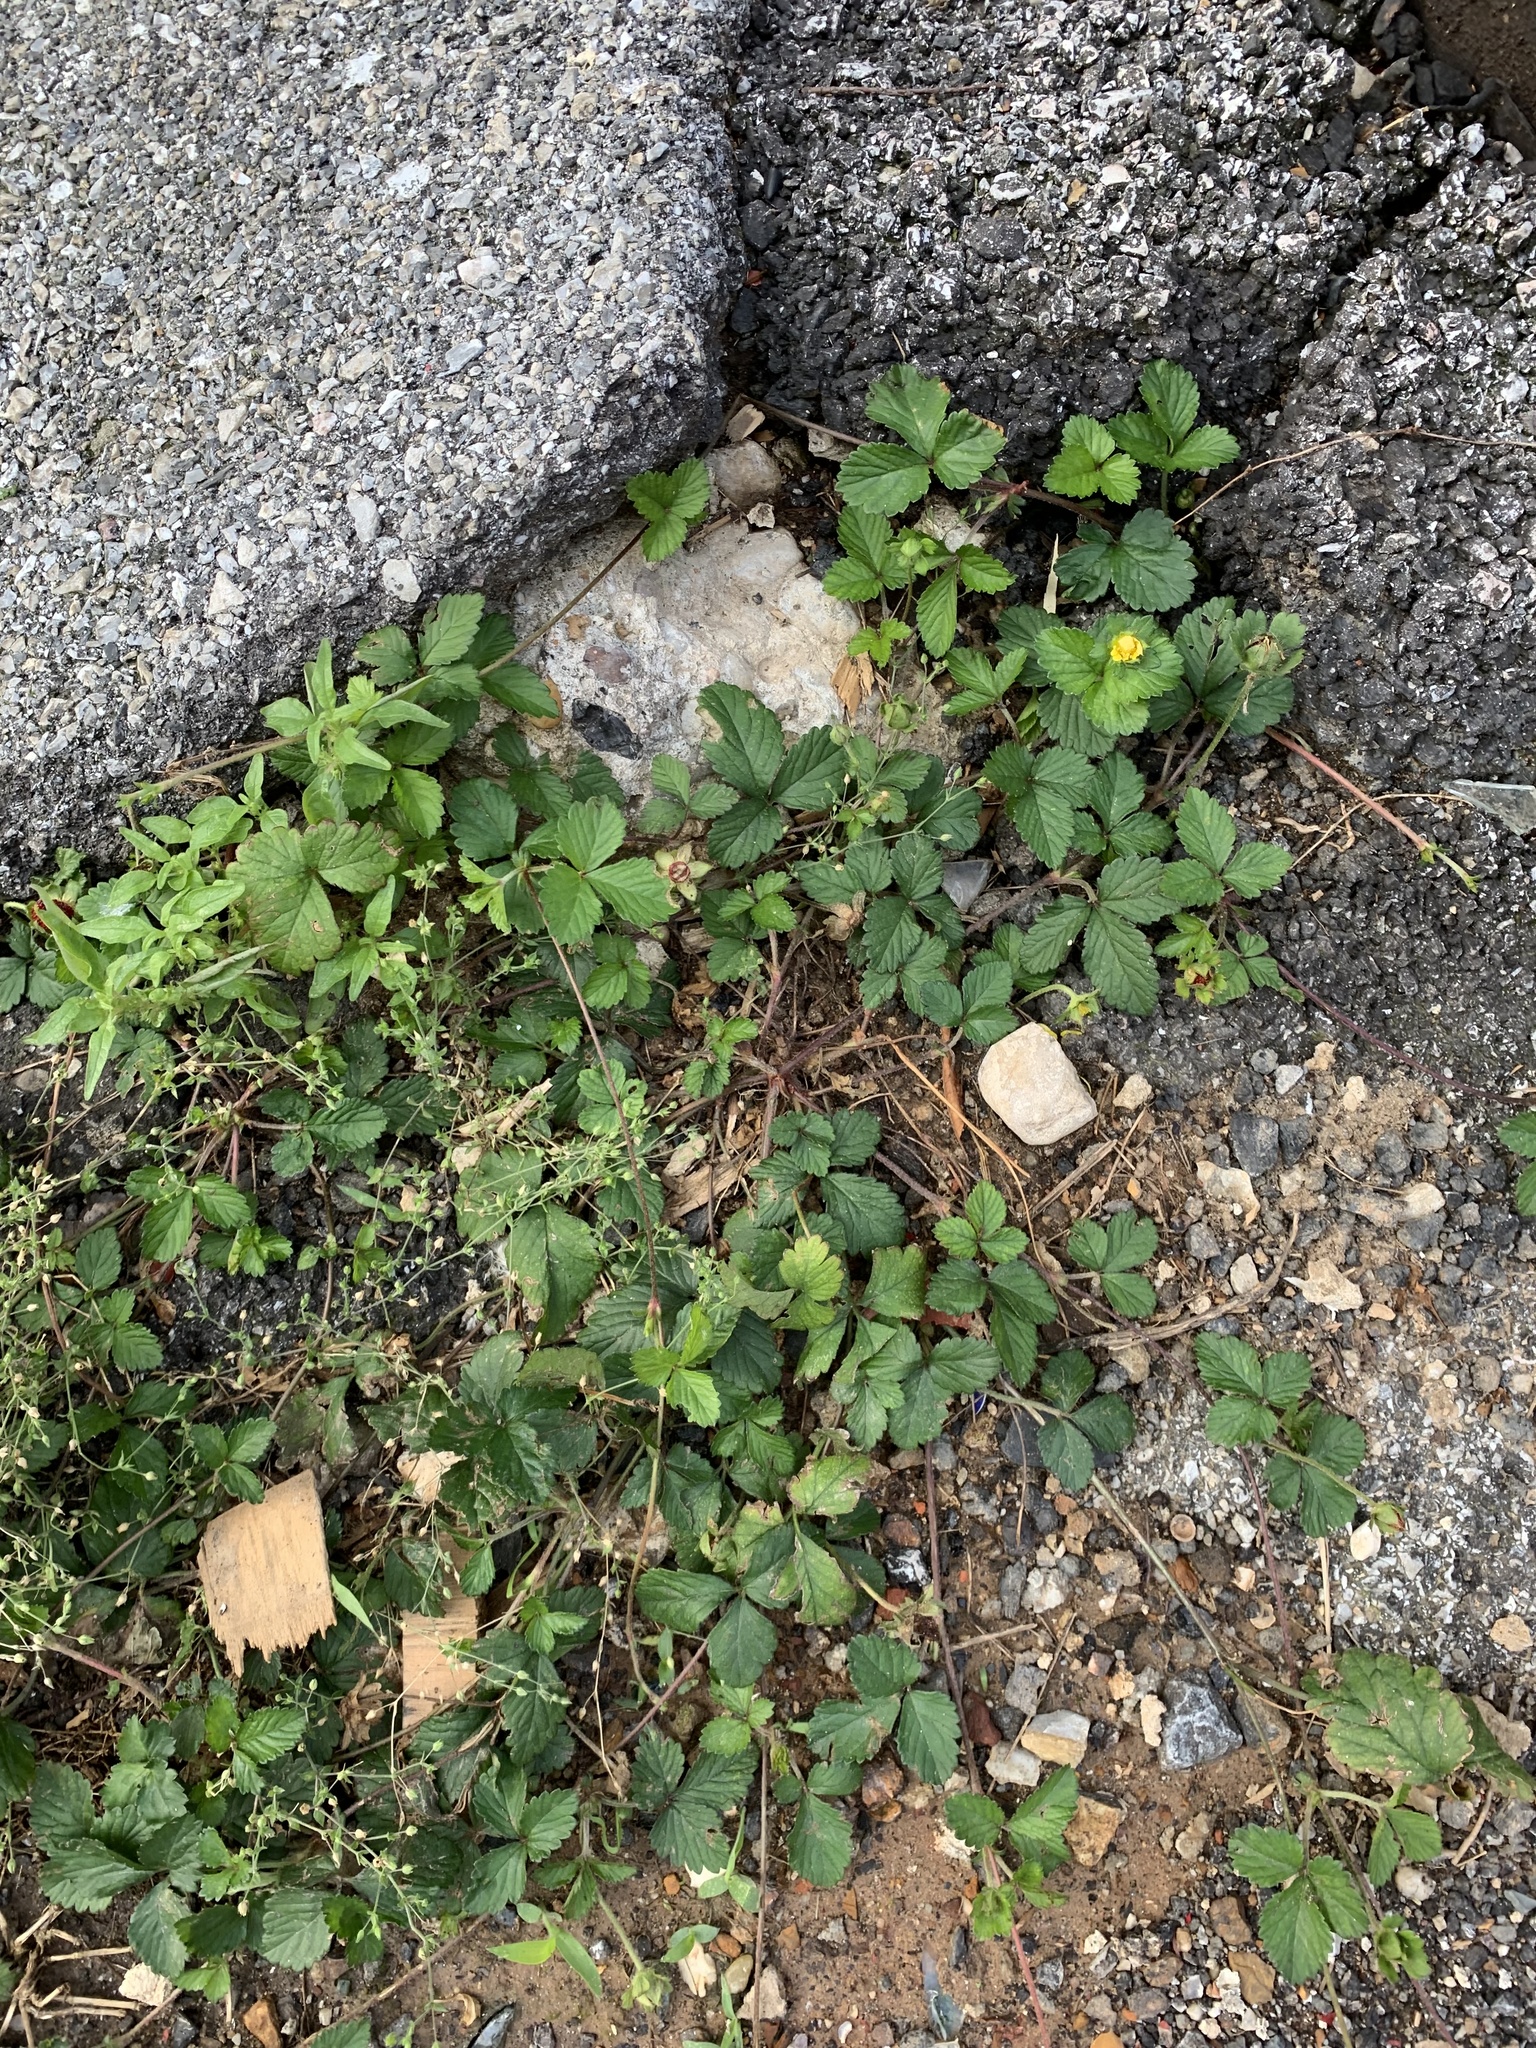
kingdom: Plantae
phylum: Tracheophyta
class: Magnoliopsida
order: Rosales
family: Rosaceae
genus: Potentilla
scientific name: Potentilla indica
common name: Yellow-flowered strawberry
